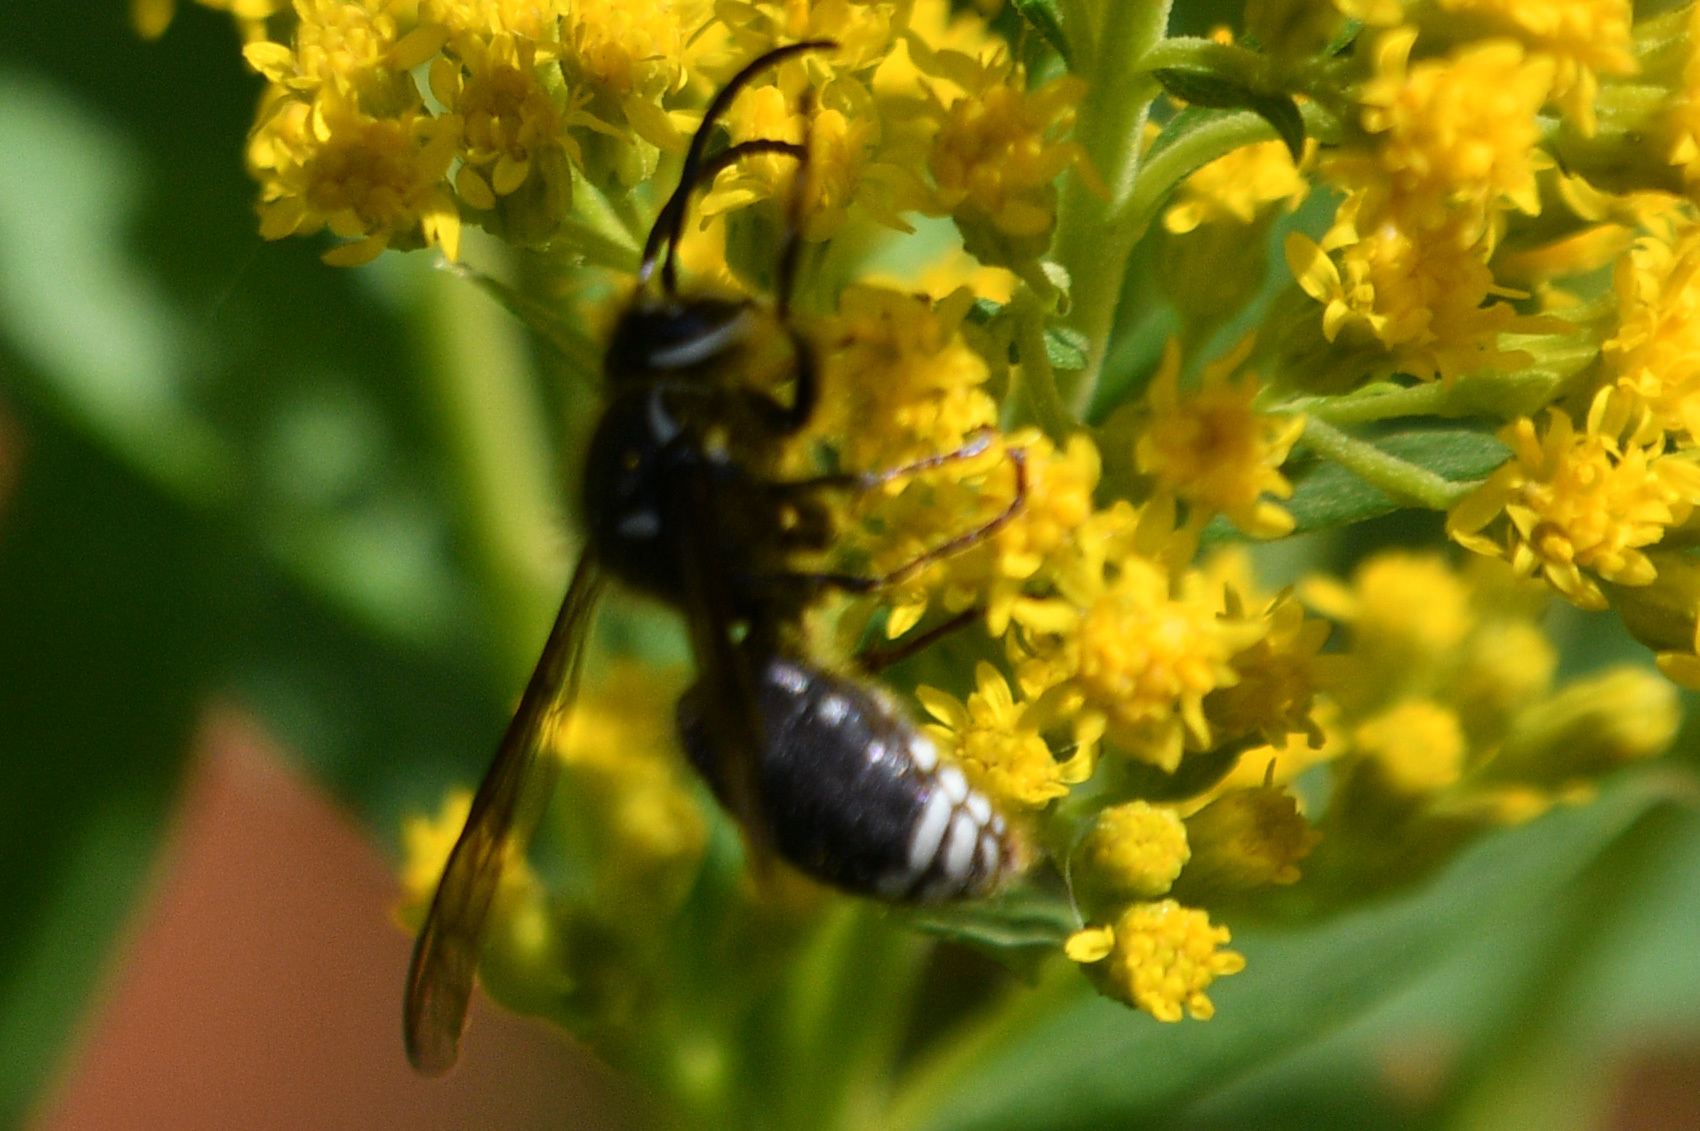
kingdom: Animalia
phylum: Arthropoda
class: Insecta
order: Hymenoptera
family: Vespidae
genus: Dolichovespula
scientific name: Dolichovespula maculata
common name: Bald-faced hornet
